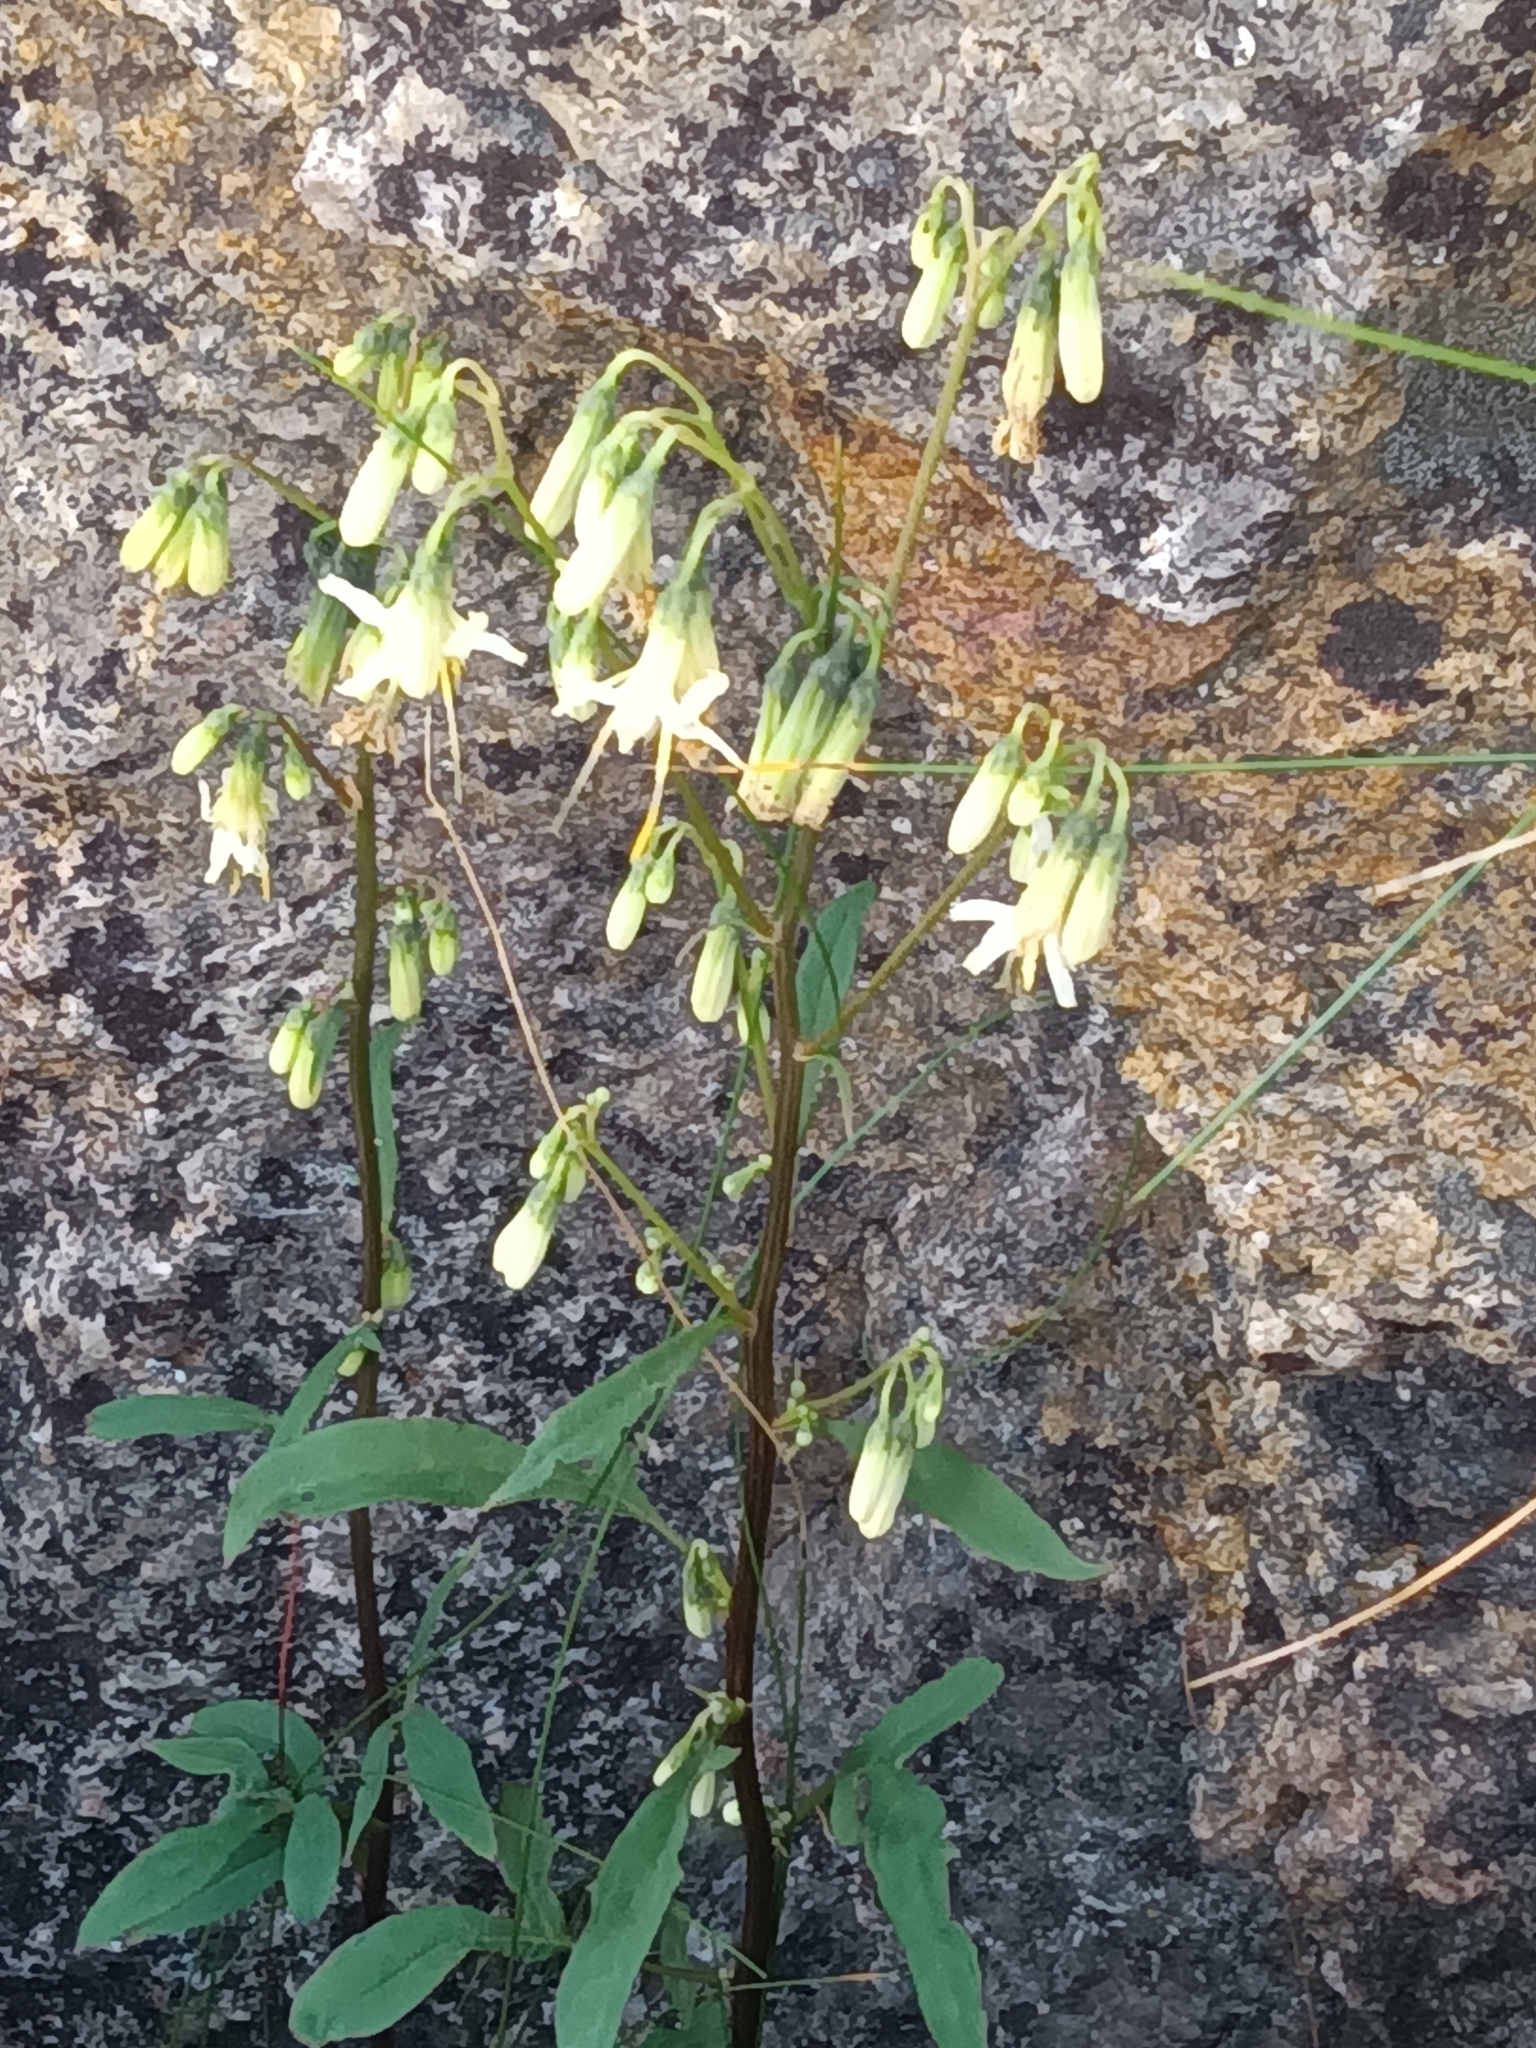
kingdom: Plantae
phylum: Tracheophyta
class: Magnoliopsida
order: Asterales
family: Asteraceae
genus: Nabalus
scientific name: Nabalus trifoliolatus
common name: Gall-of-the-earth
